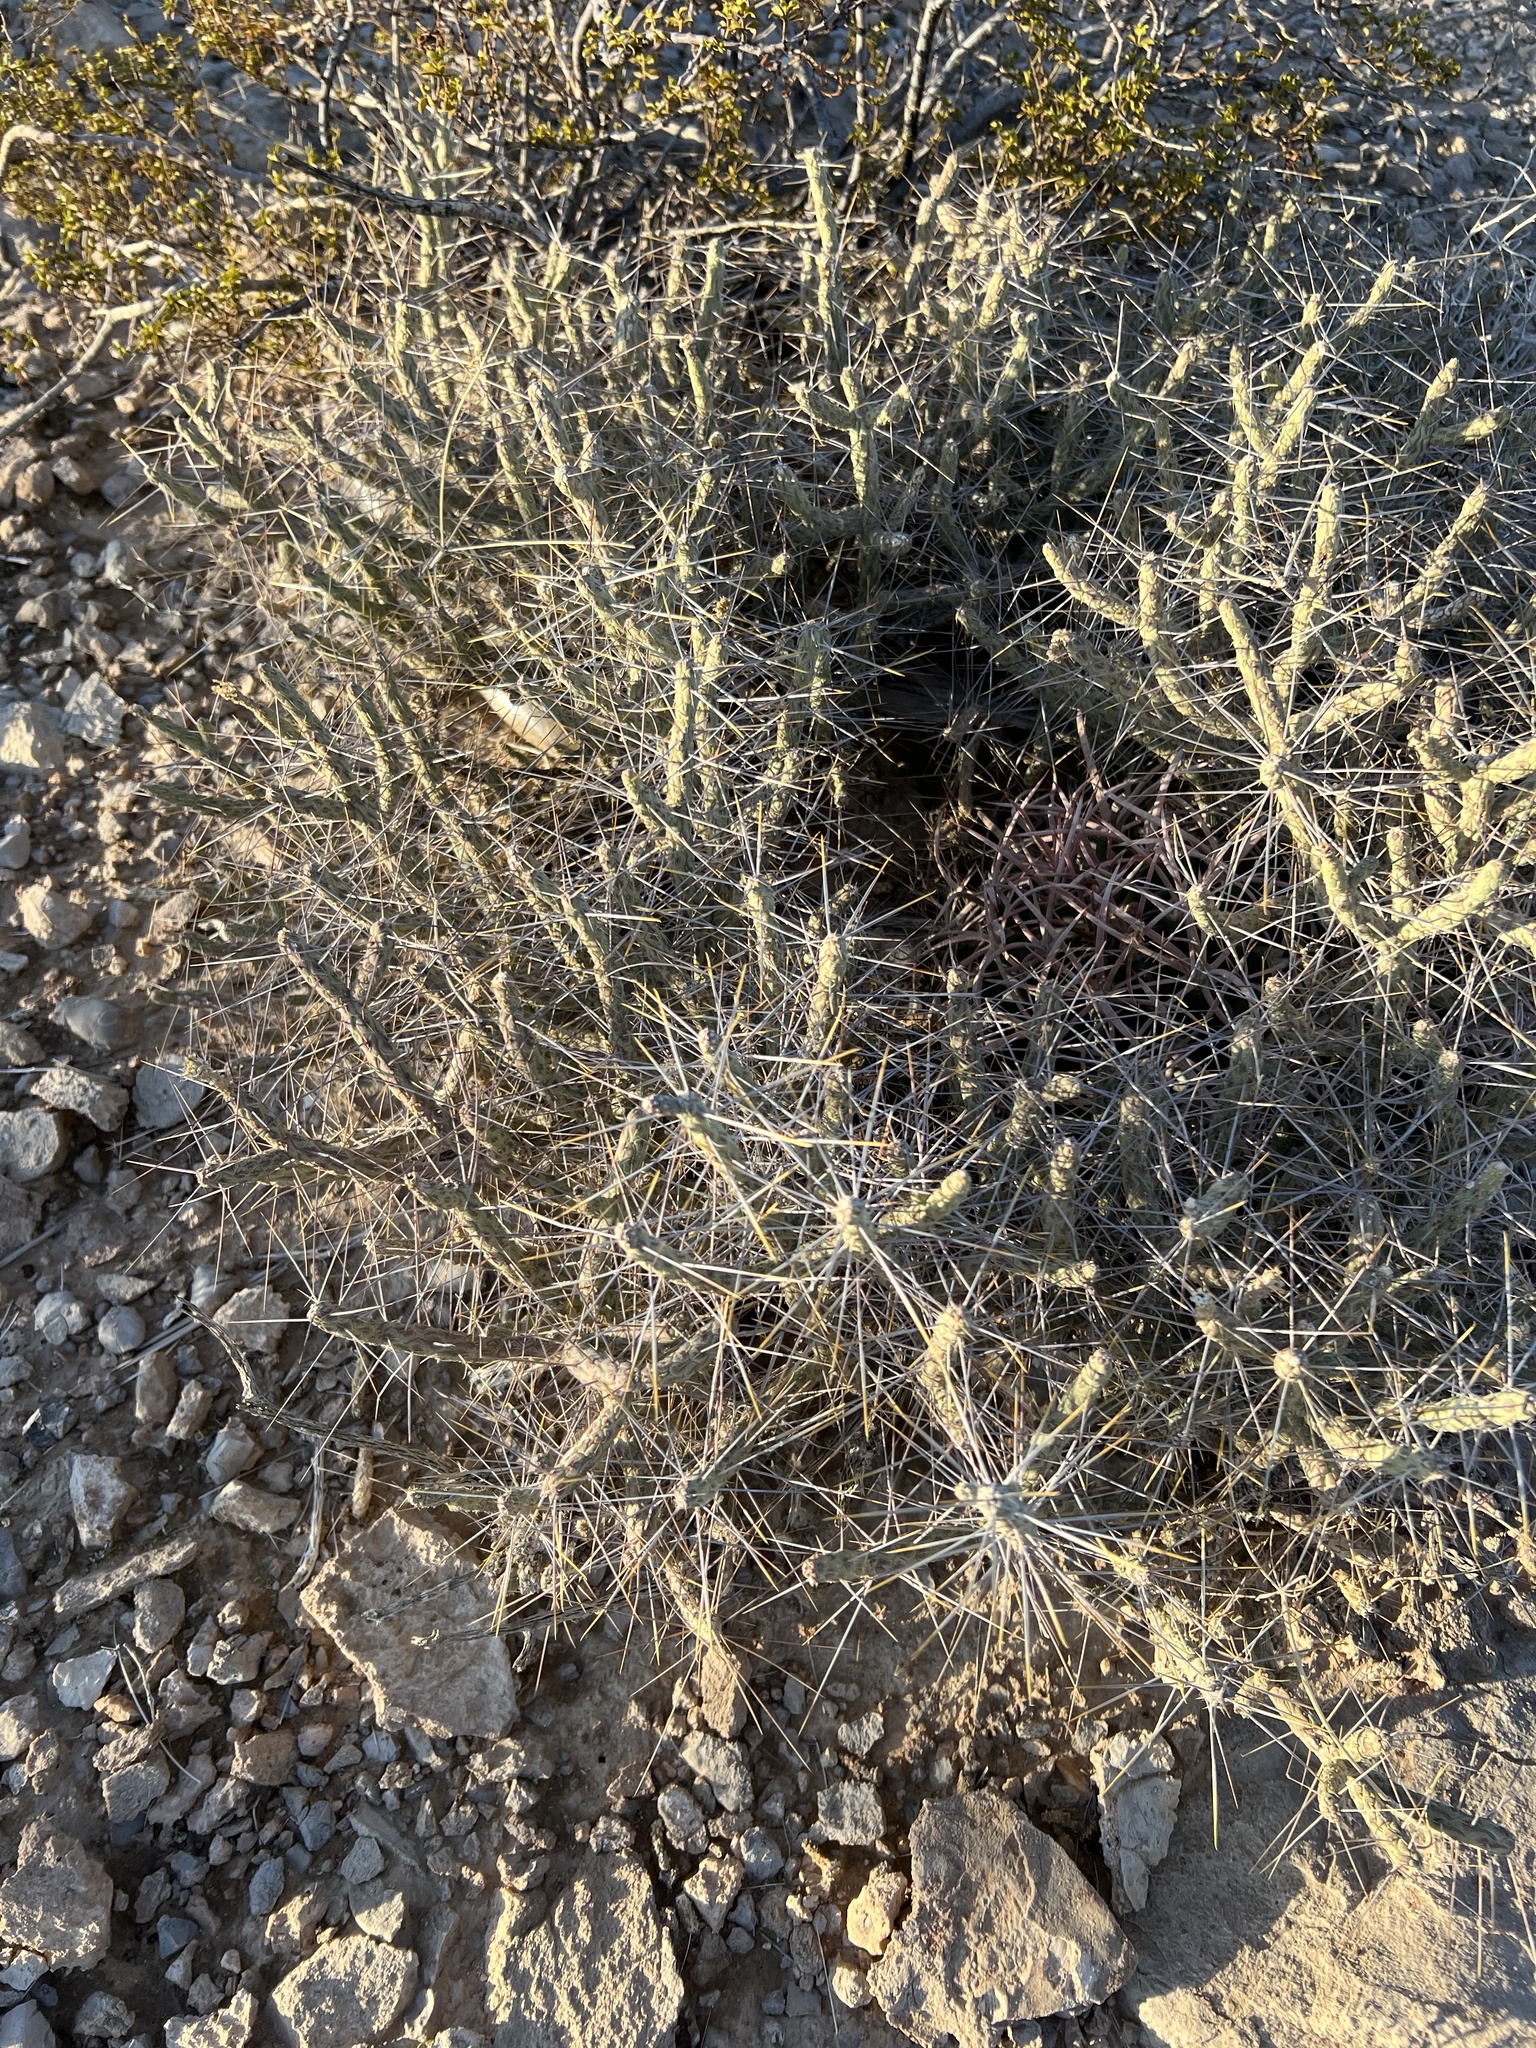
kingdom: Plantae
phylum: Tracheophyta
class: Magnoliopsida
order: Caryophyllales
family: Cactaceae
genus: Cylindropuntia
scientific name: Cylindropuntia ramosissima
